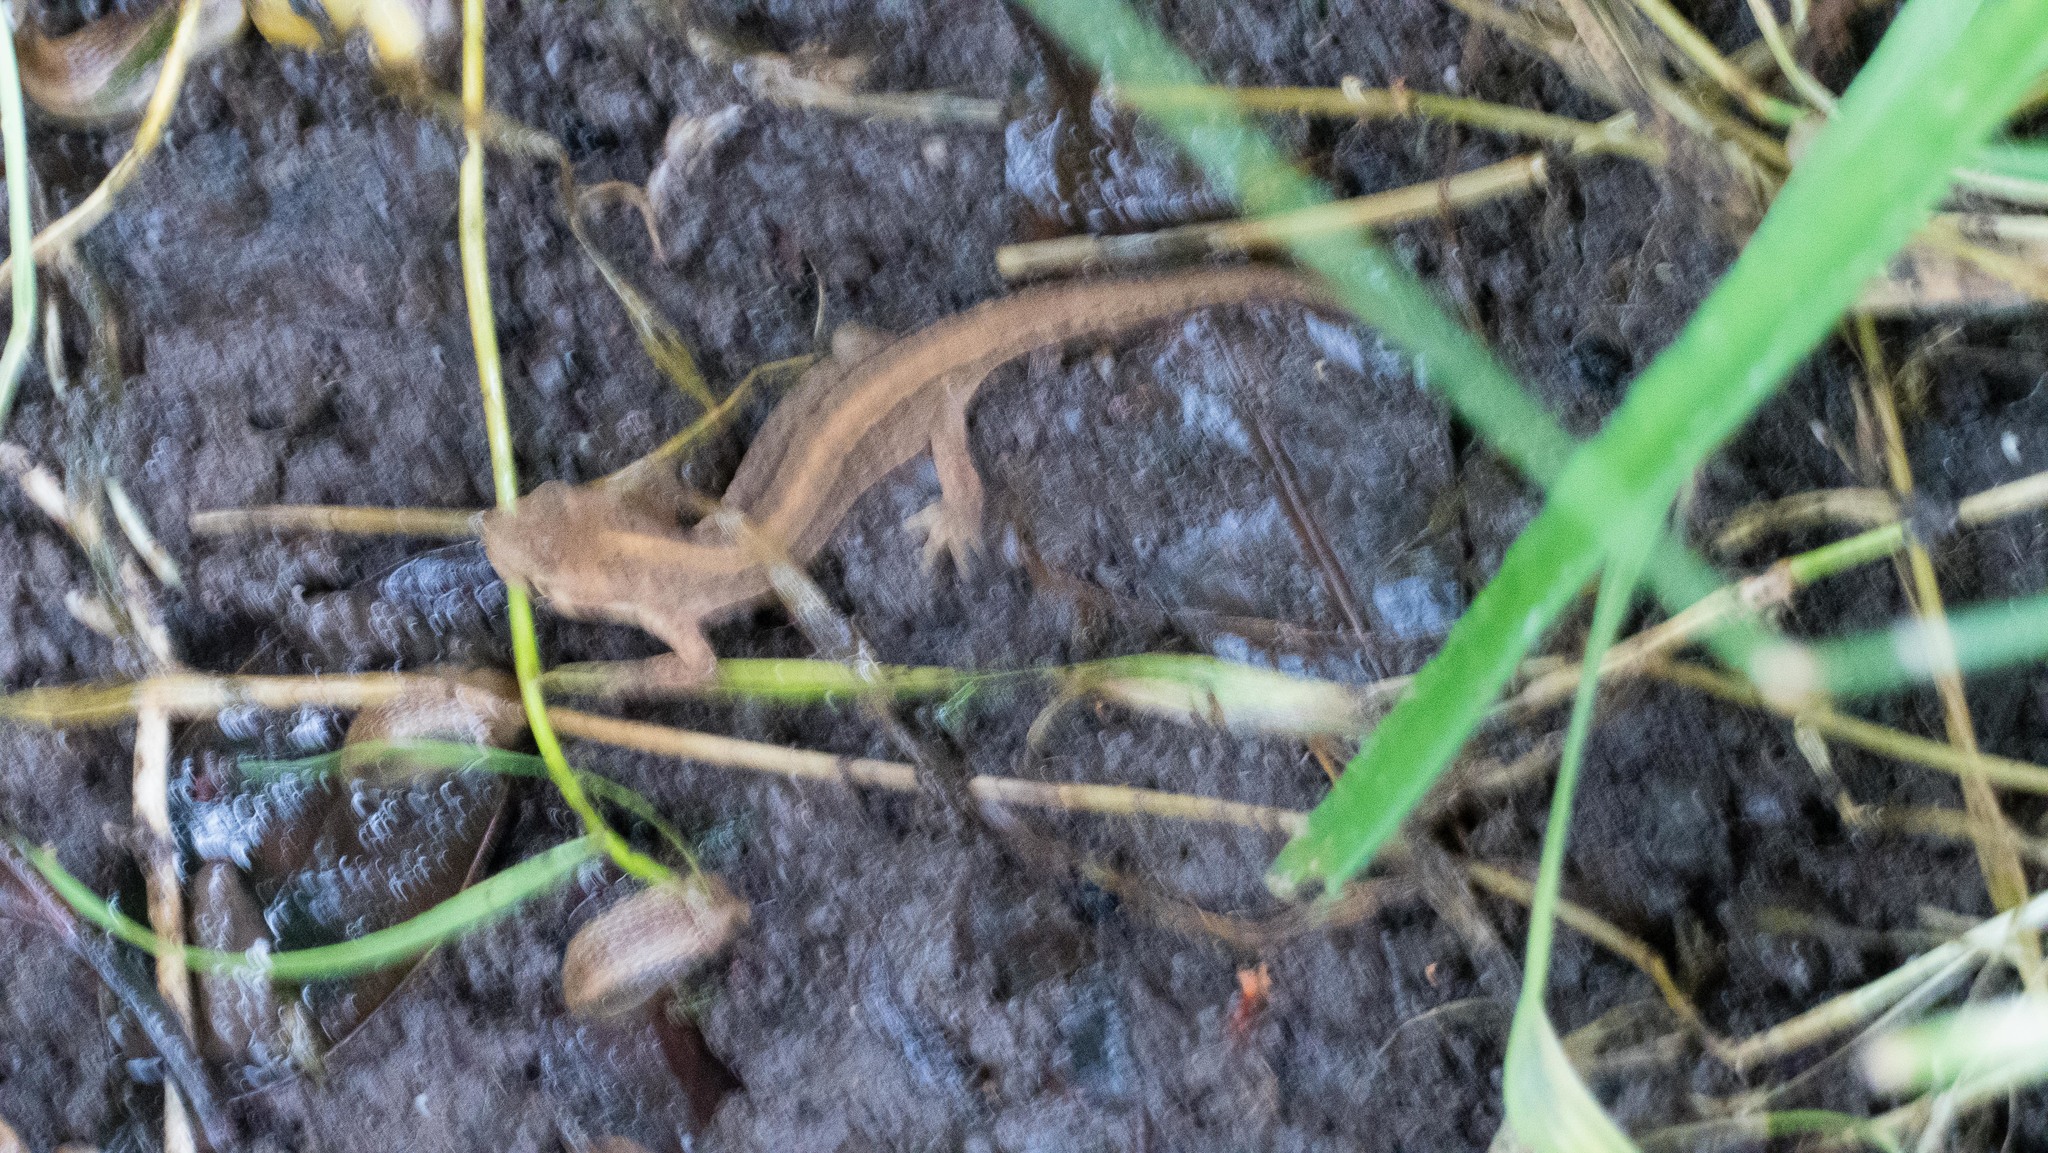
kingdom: Animalia
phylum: Chordata
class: Amphibia
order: Caudata
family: Salamandridae
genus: Lissotriton
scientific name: Lissotriton vulgaris
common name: Smooth newt
